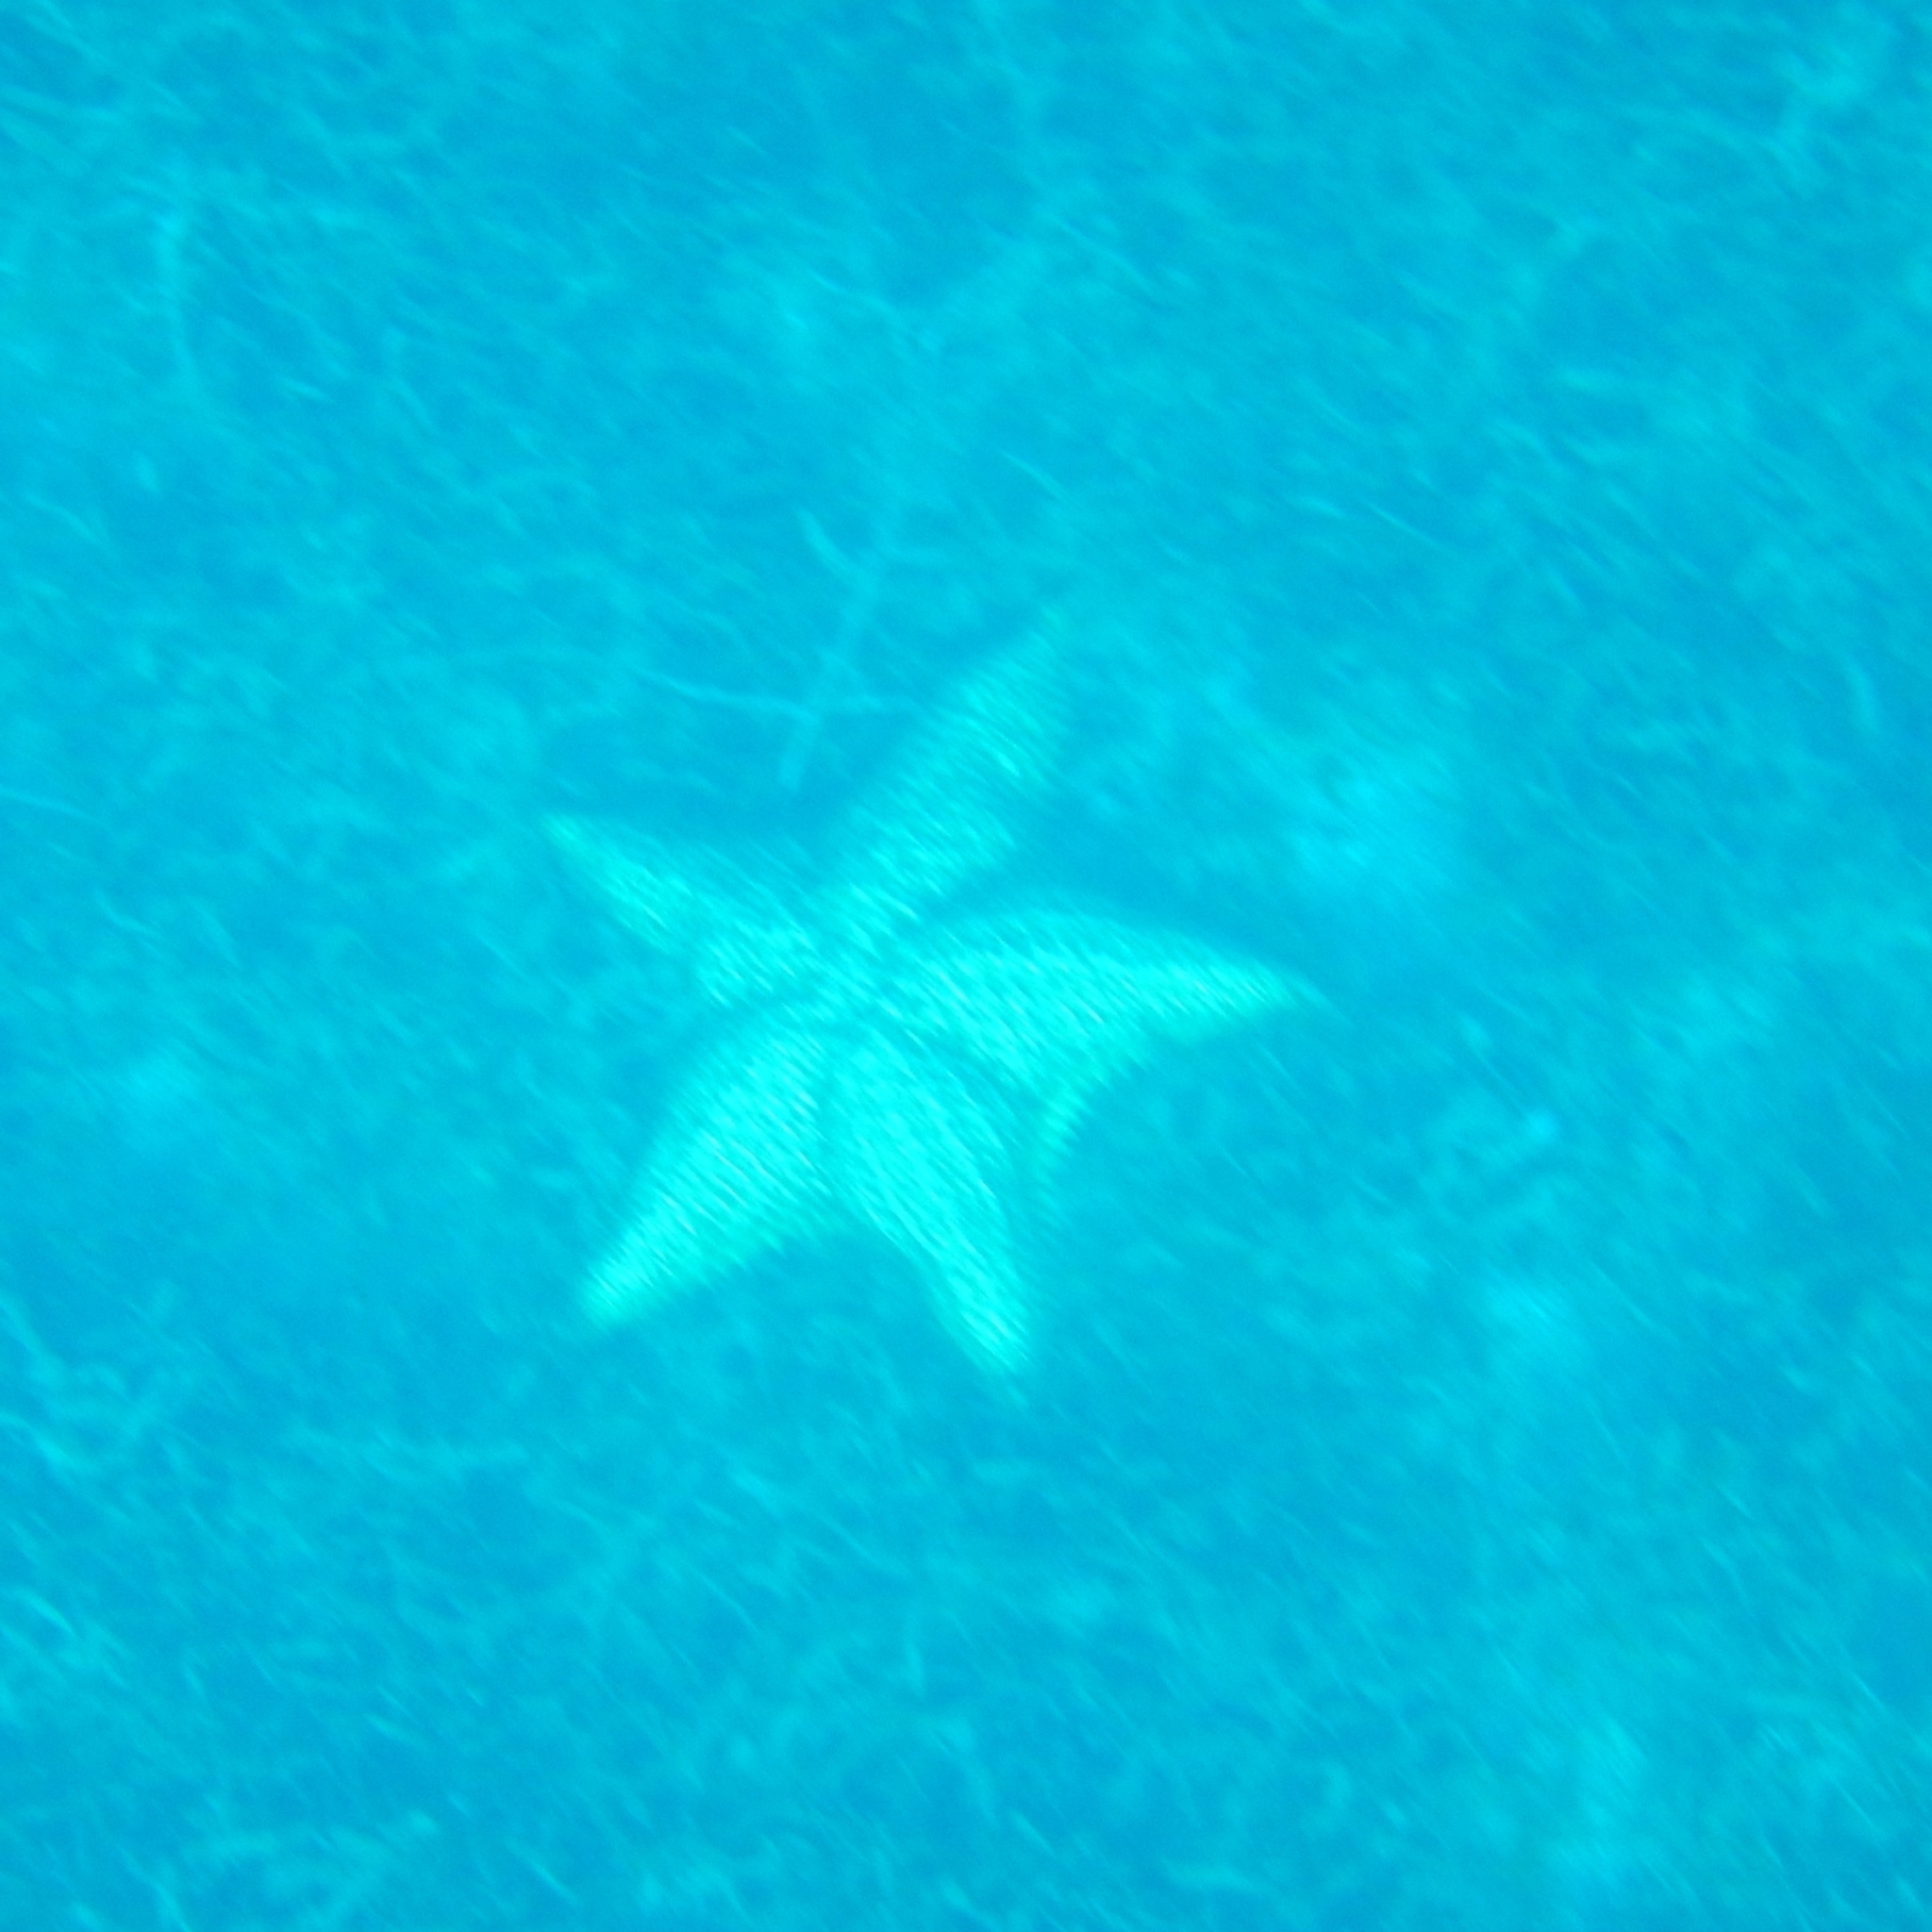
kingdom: Animalia
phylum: Echinodermata
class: Asteroidea
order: Valvatida
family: Oreasteridae
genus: Oreaster
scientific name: Oreaster reticulatus
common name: Cushion sea star
